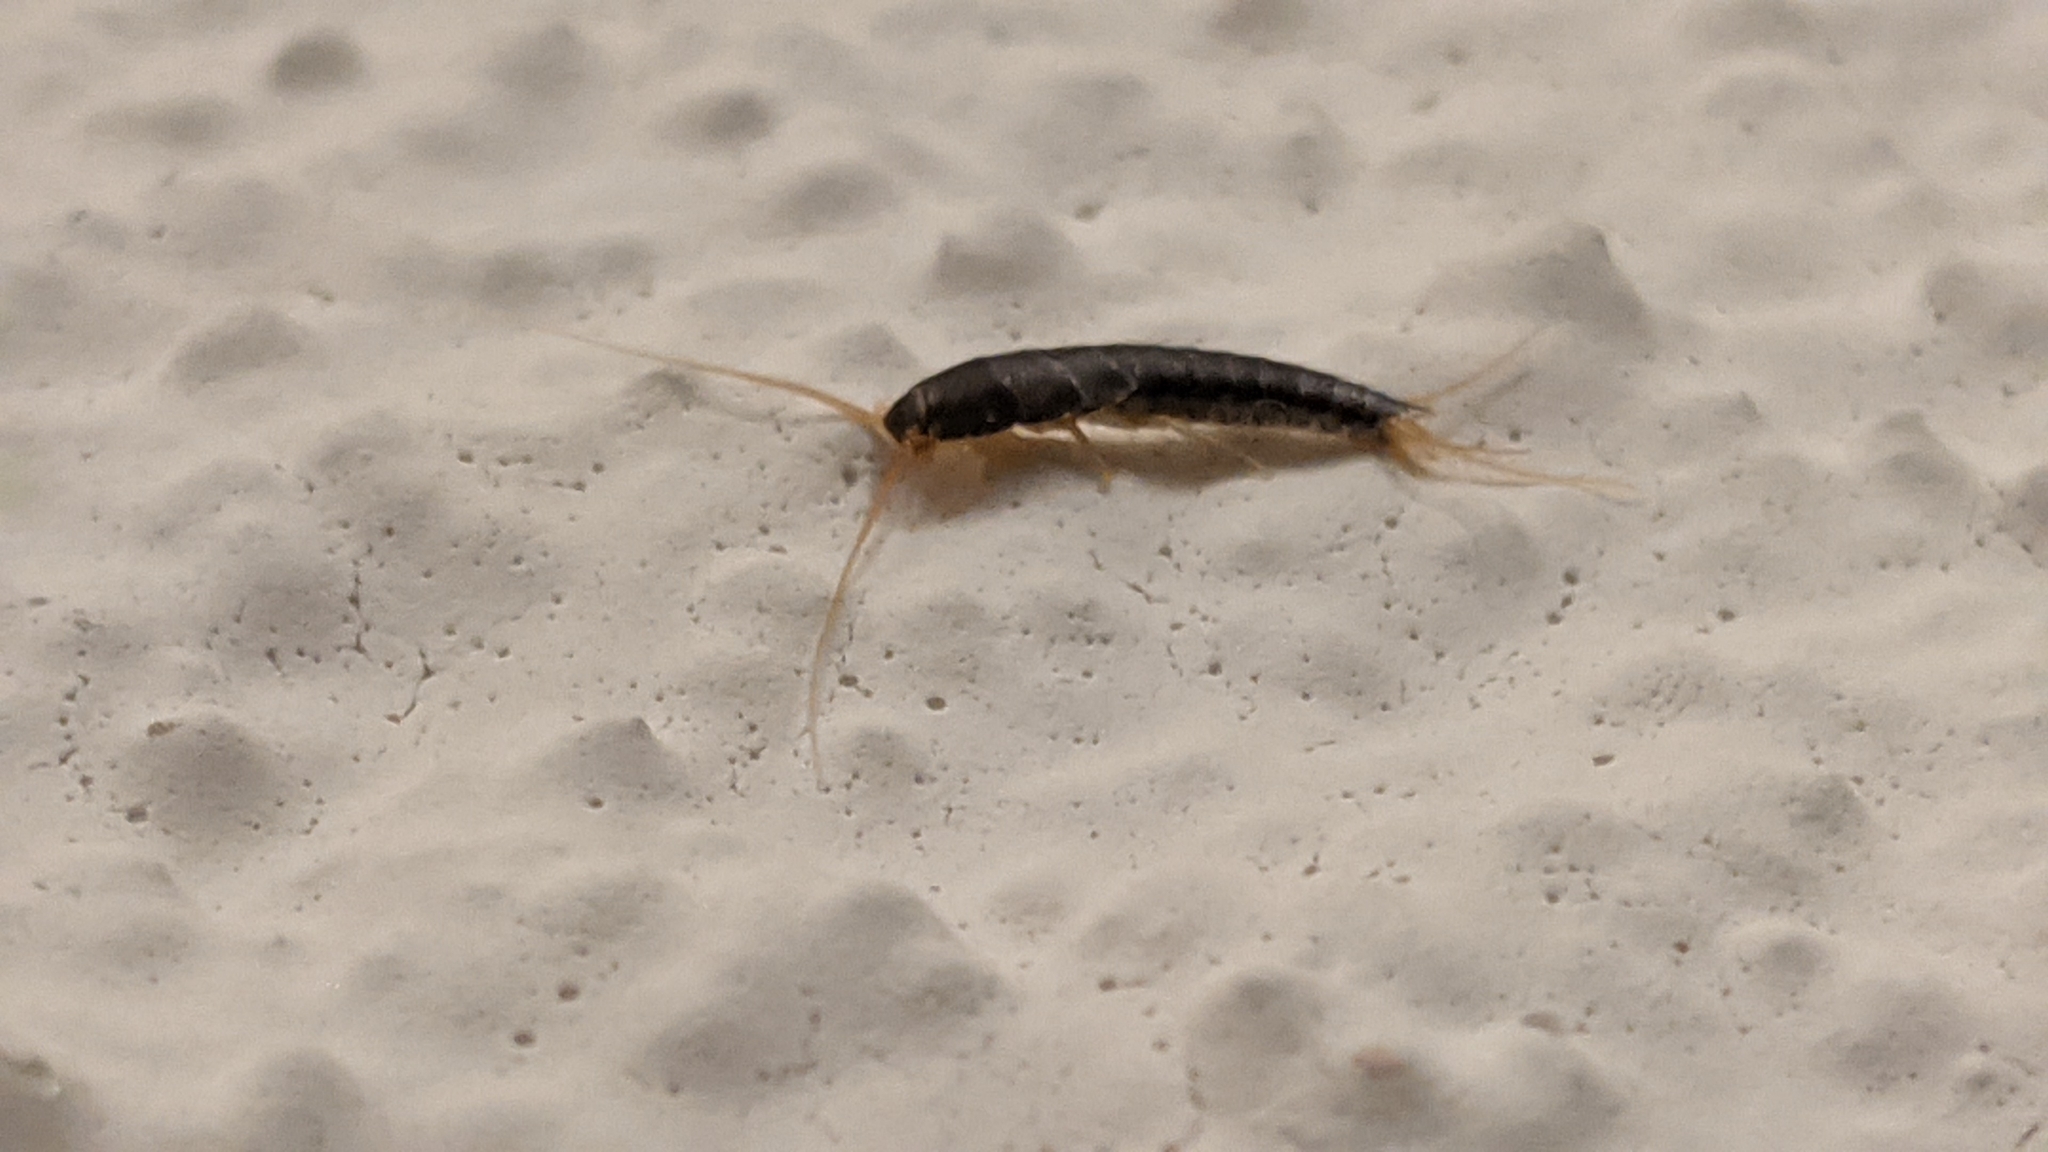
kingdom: Animalia
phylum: Arthropoda
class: Insecta
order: Zygentoma
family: Lepismatidae
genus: Lepisma
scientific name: Lepisma saccharinum
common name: Silverfish
